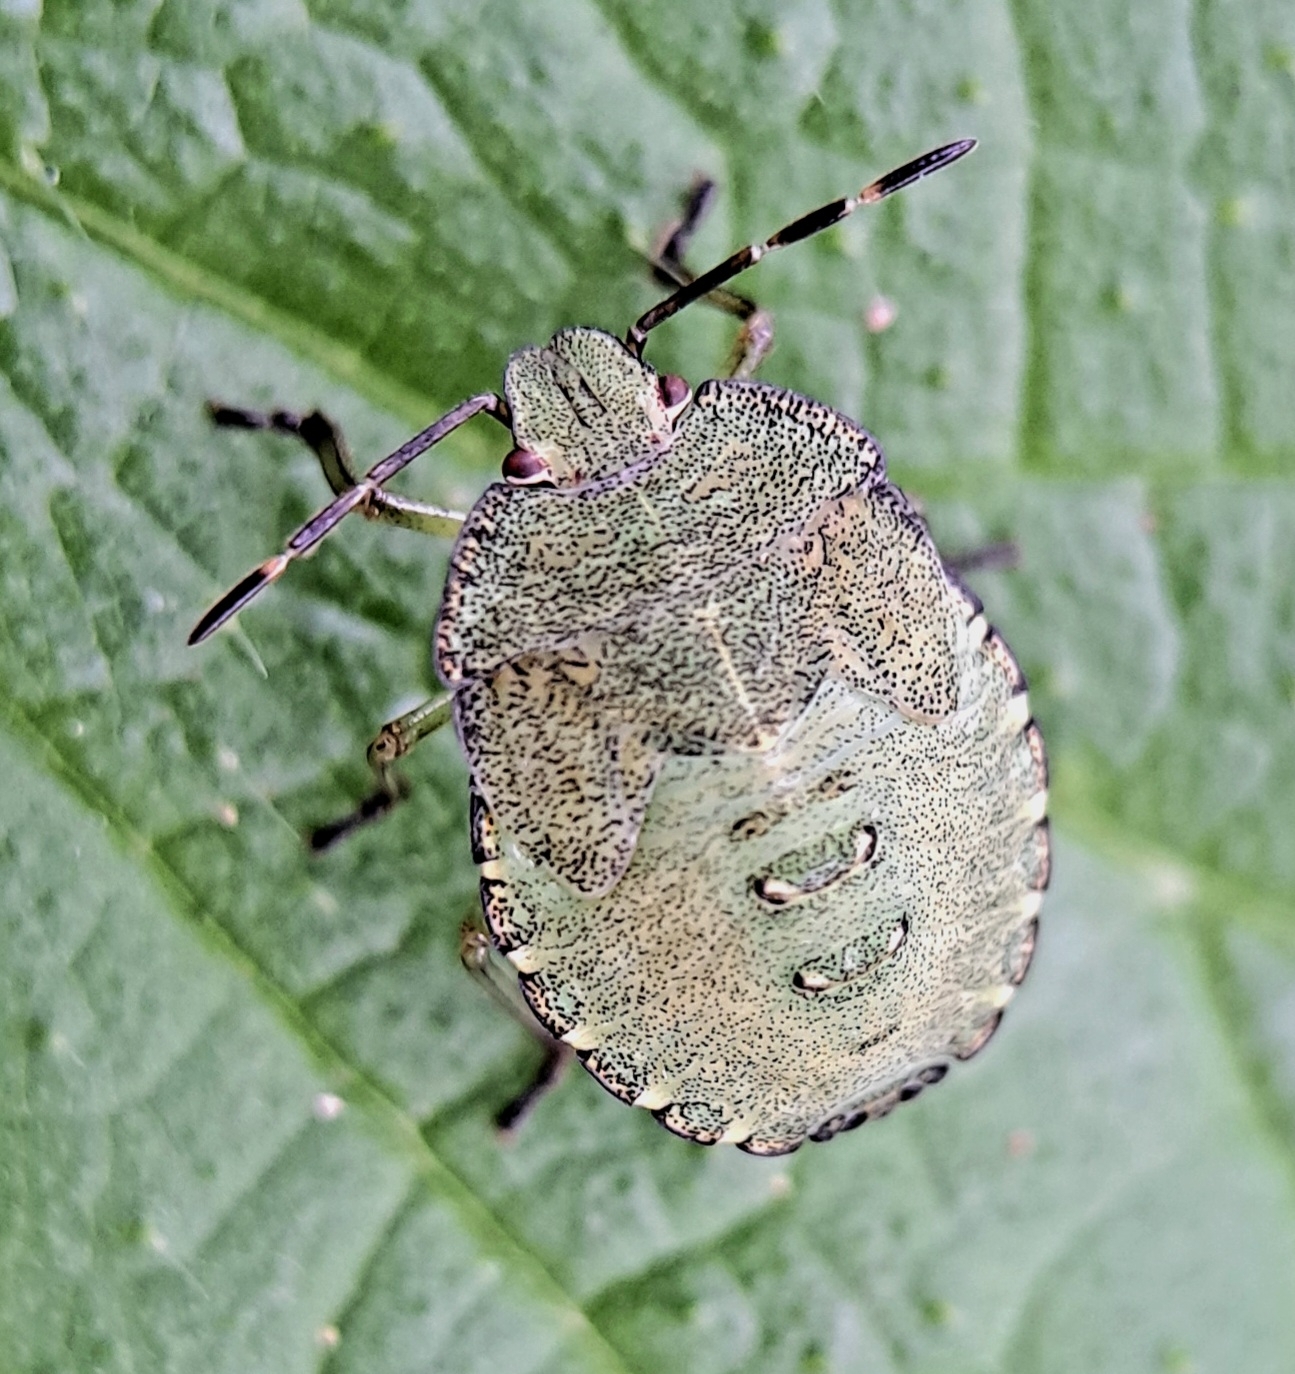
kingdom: Animalia
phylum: Arthropoda
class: Insecta
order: Hemiptera
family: Pentatomidae
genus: Palomena
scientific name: Palomena prasina
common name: Green shieldbug
